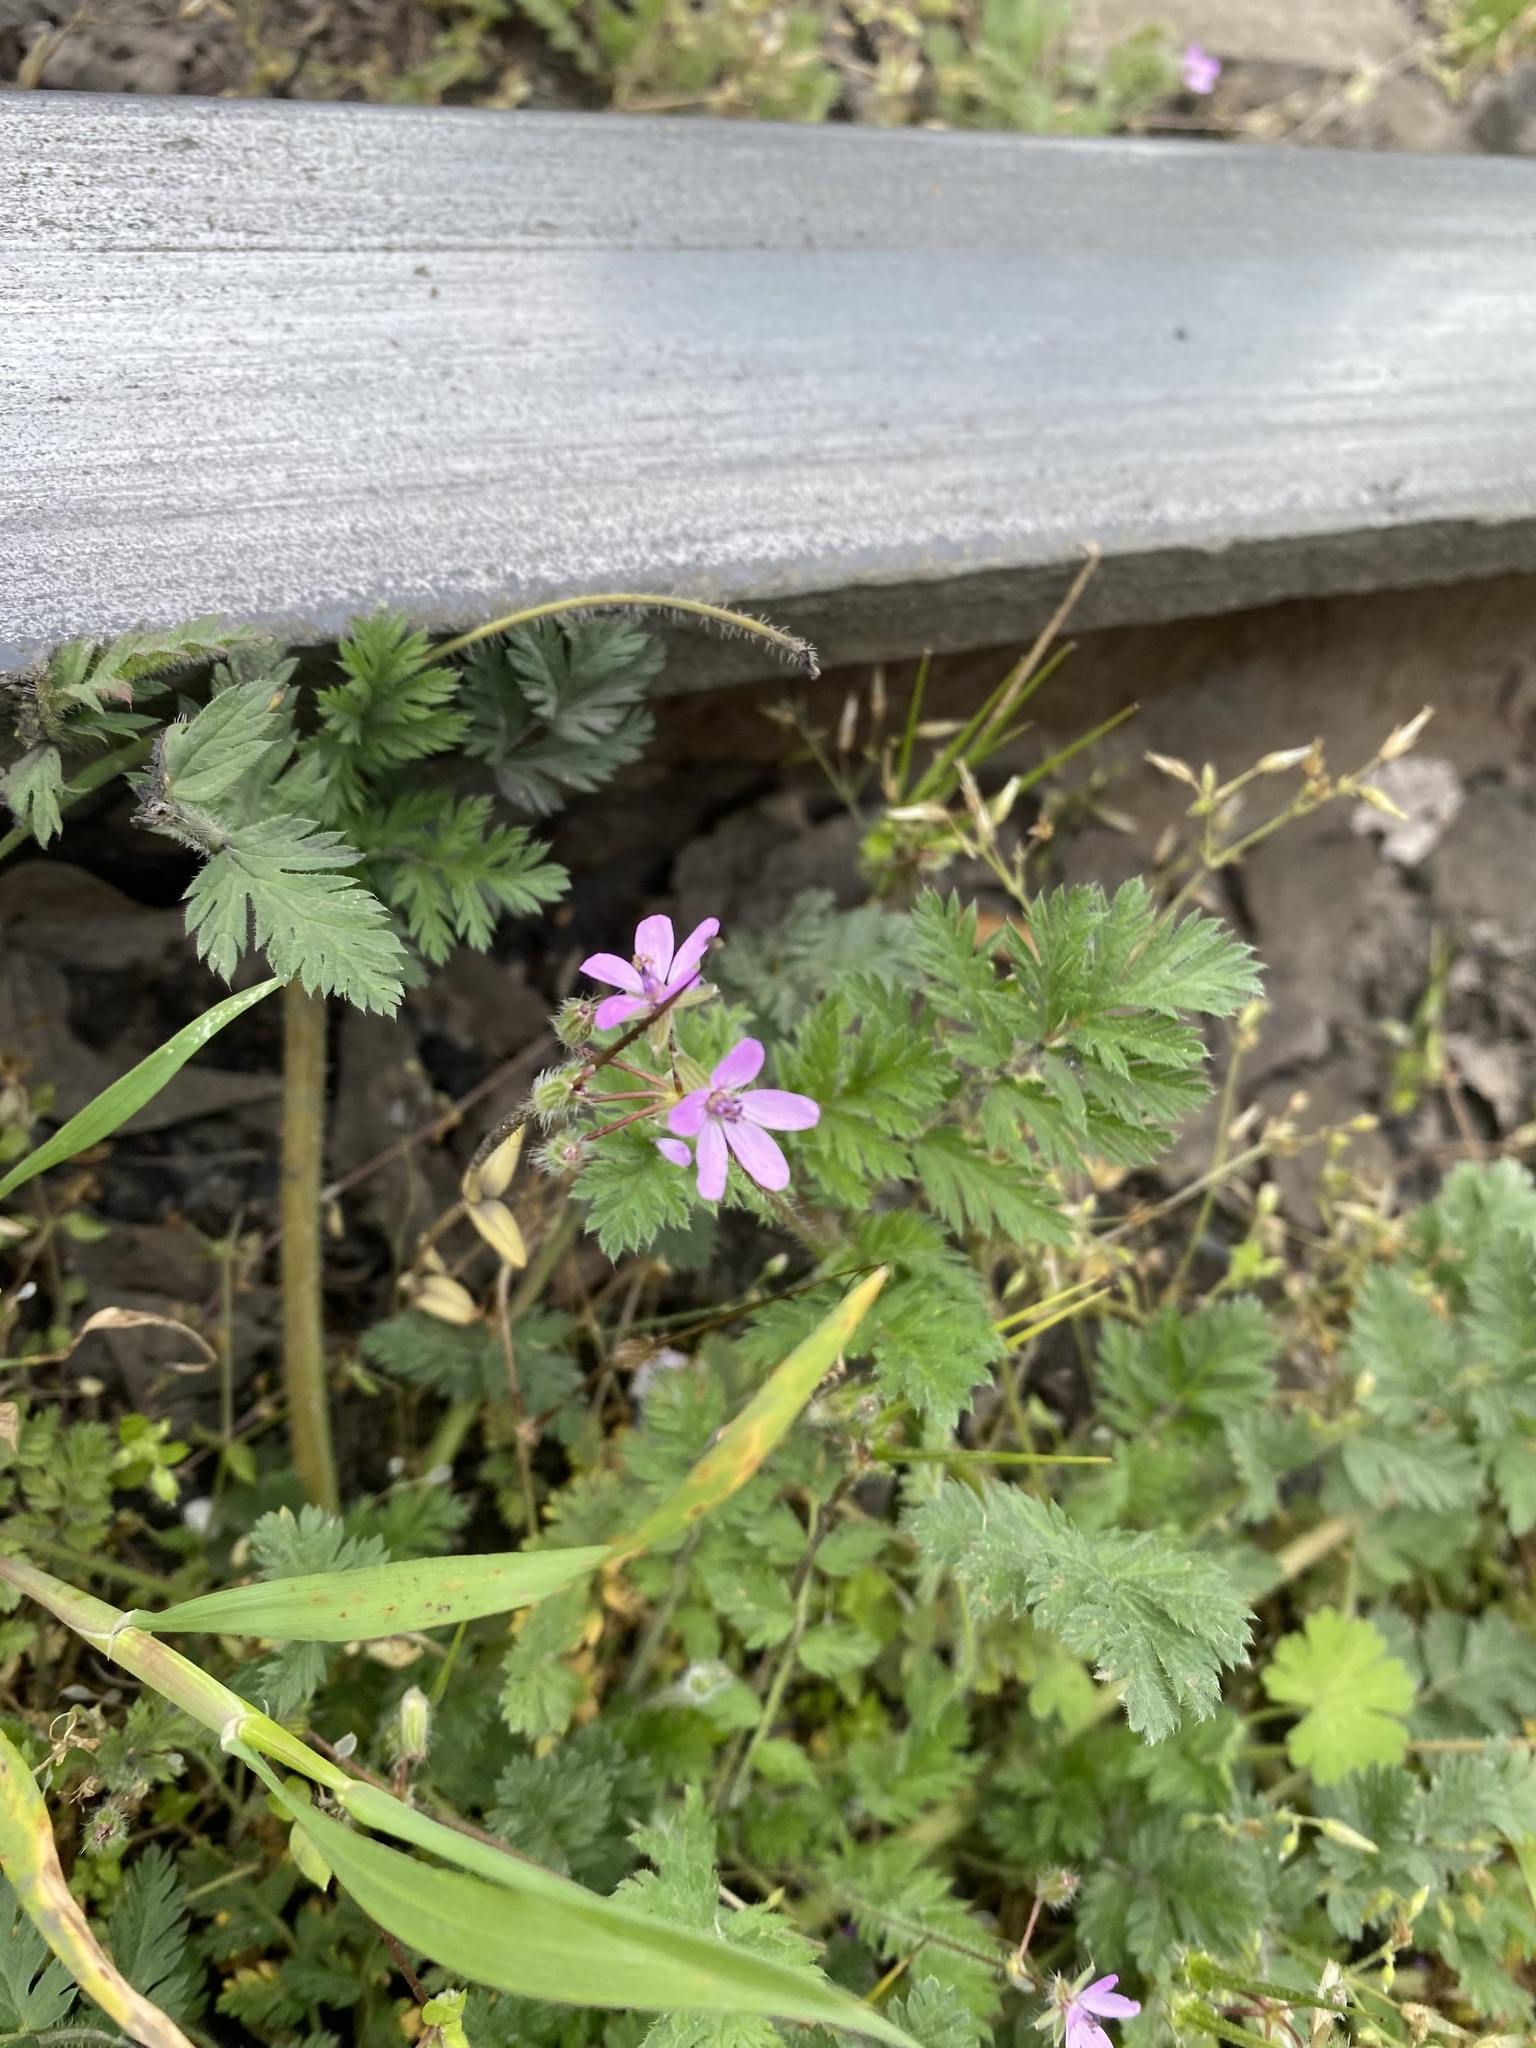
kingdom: Plantae
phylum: Tracheophyta
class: Magnoliopsida
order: Geraniales
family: Geraniaceae
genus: Erodium
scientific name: Erodium cicutarium
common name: Common stork's-bill
